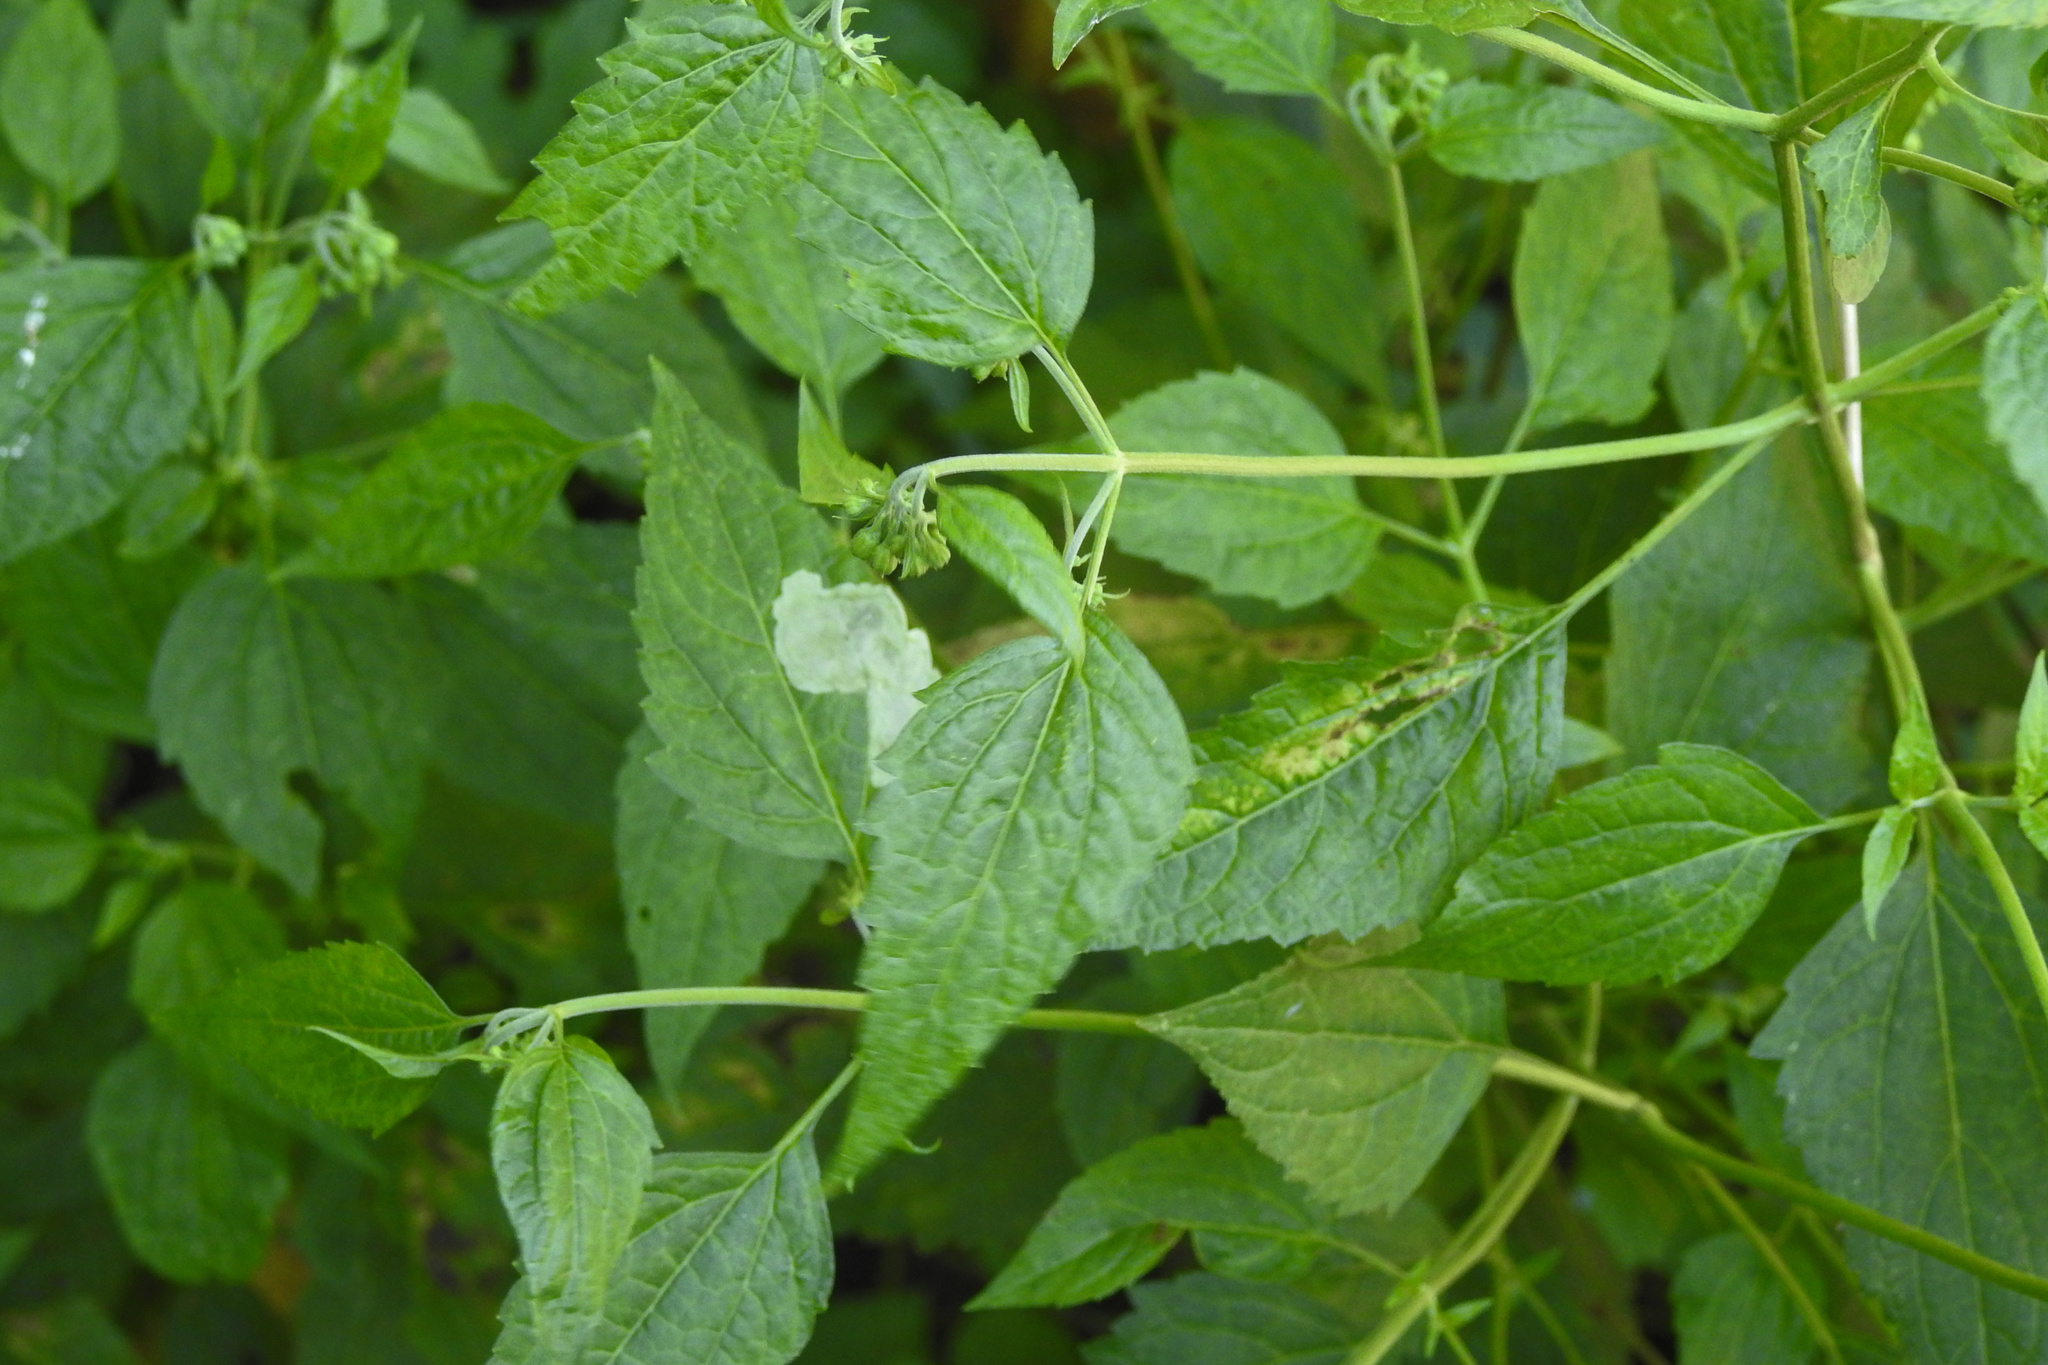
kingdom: Plantae
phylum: Tracheophyta
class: Magnoliopsida
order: Asterales
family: Asteraceae
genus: Ageratina
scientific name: Ageratina altissima
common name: White snakeroot
